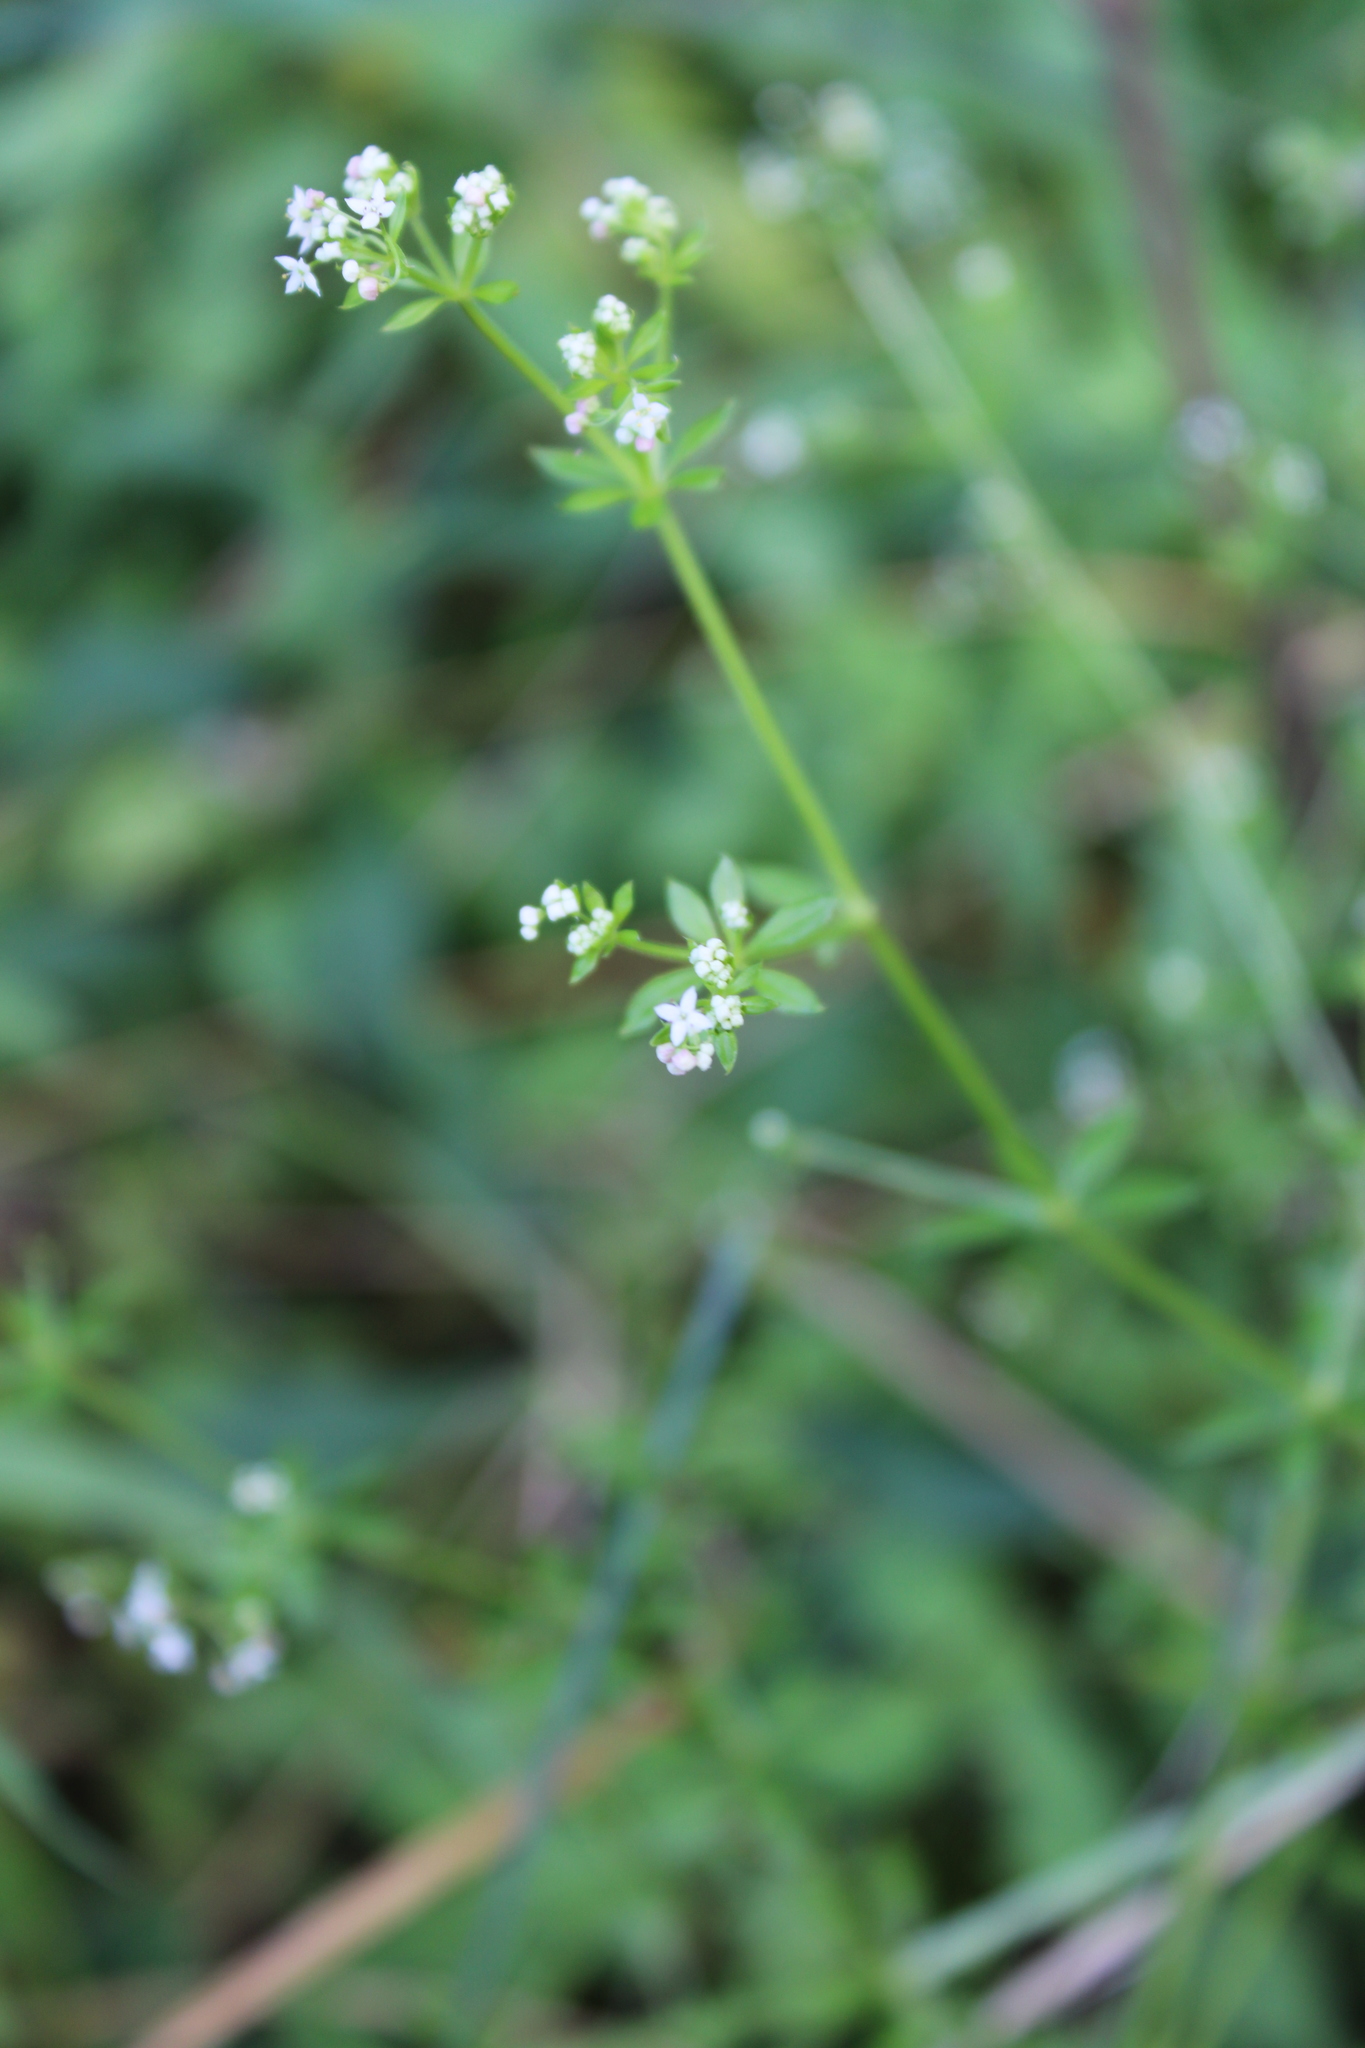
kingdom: Plantae
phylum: Tracheophyta
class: Magnoliopsida
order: Gentianales
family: Rubiaceae
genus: Galium
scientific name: Galium asprellum
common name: Rough bedstraw
